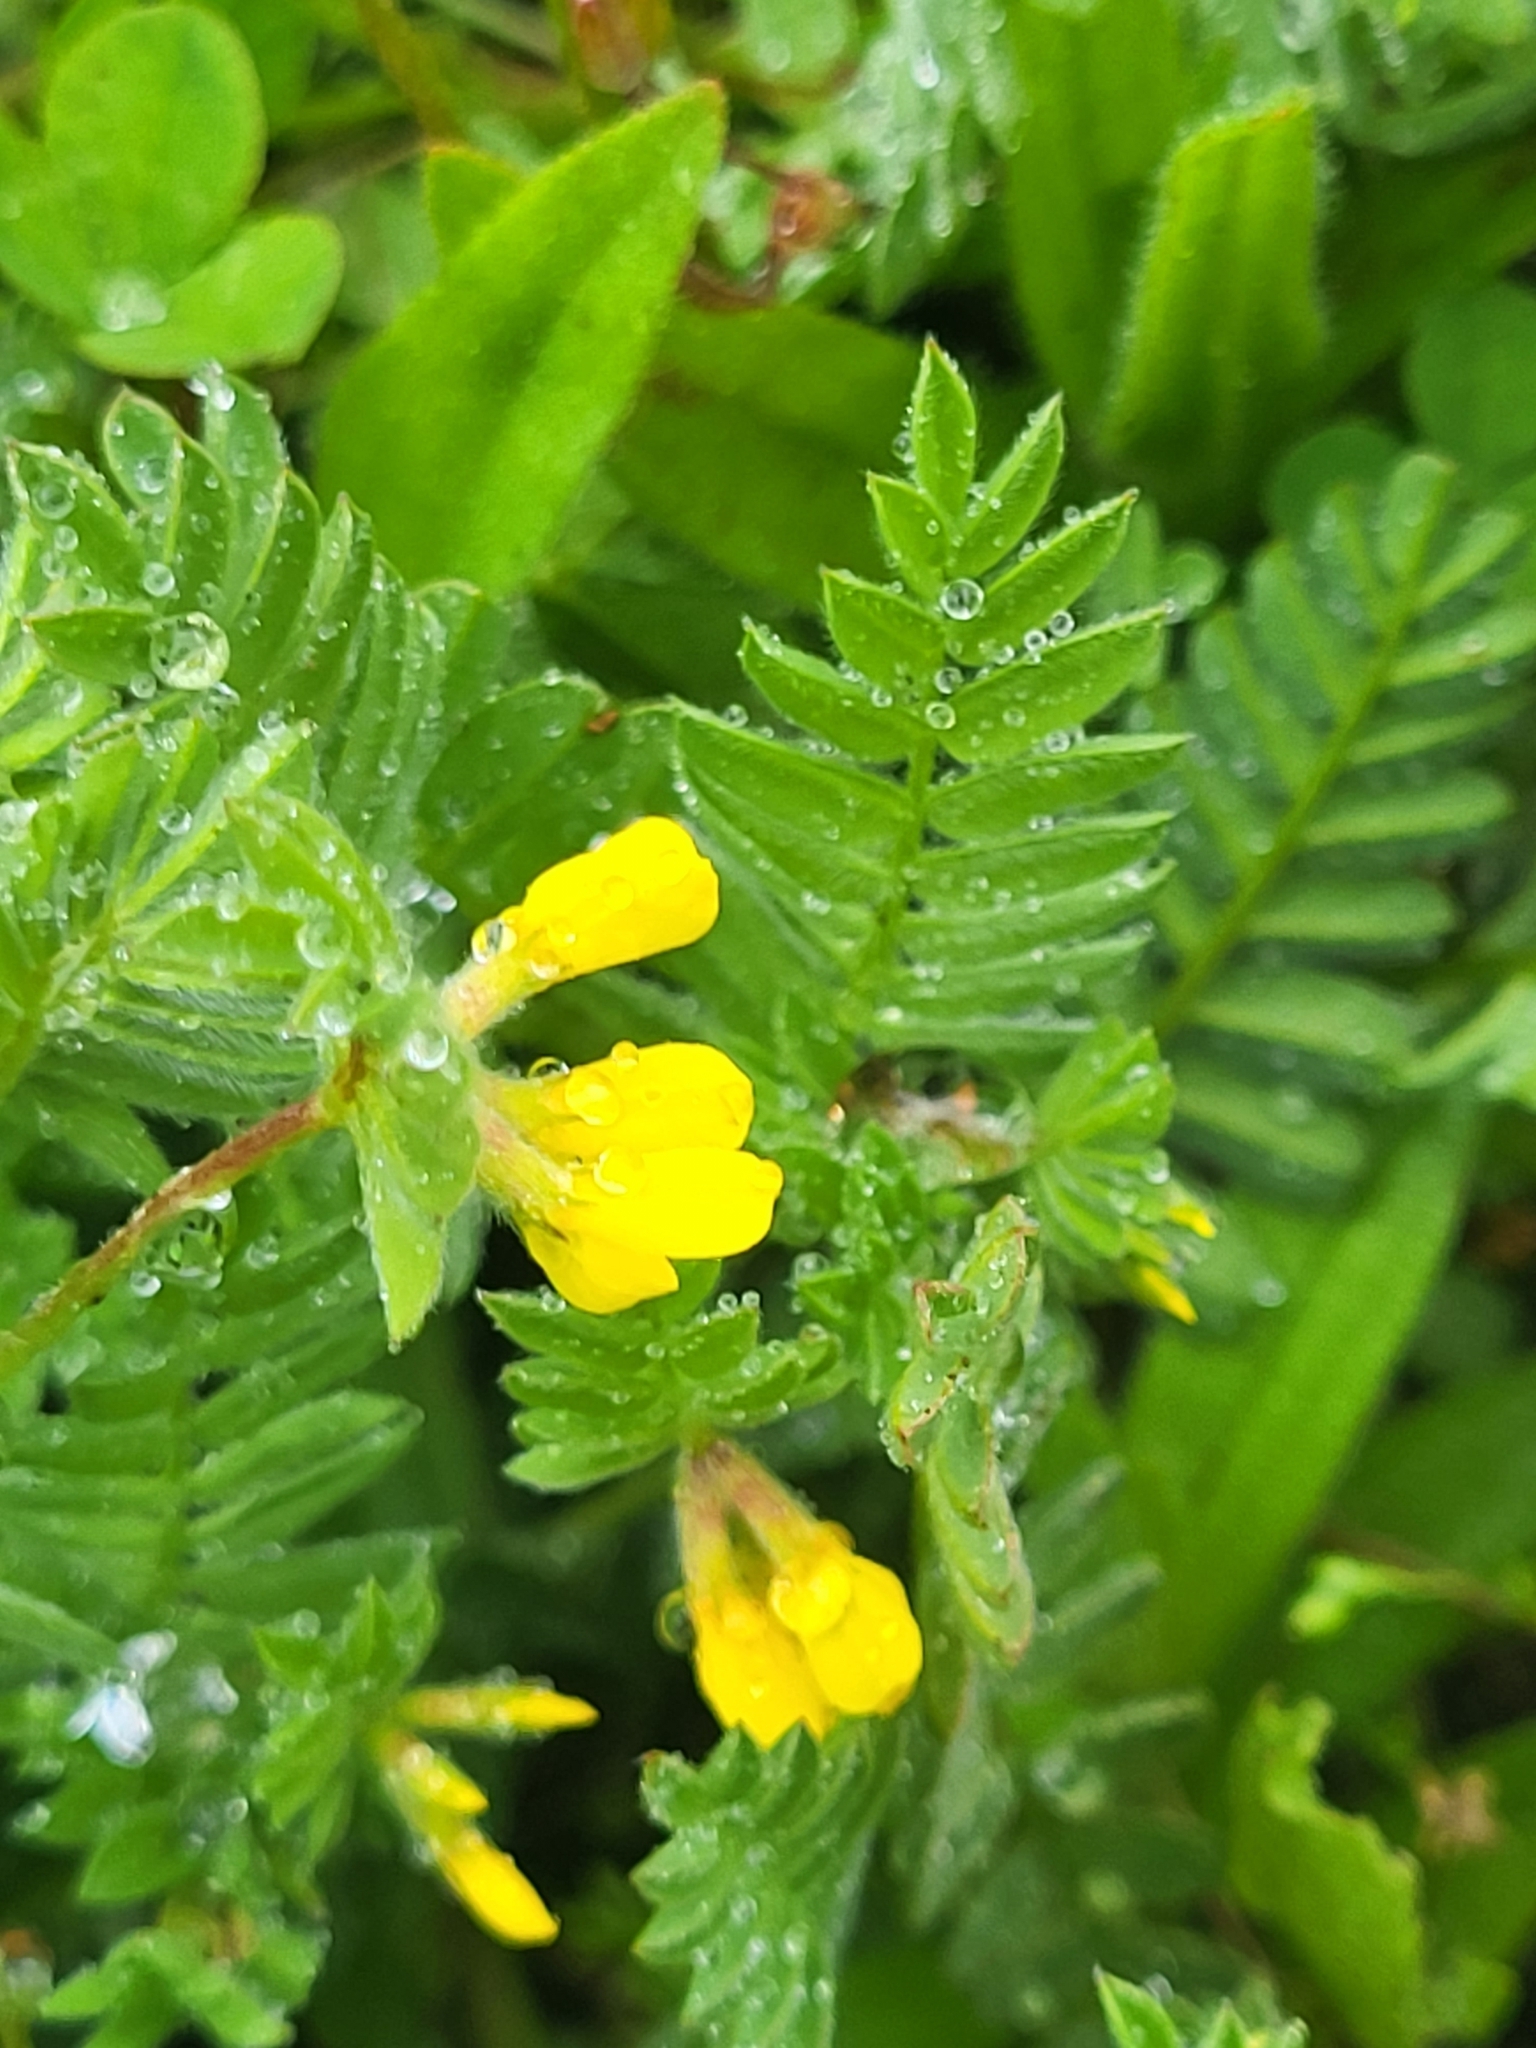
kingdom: Plantae
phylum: Tracheophyta
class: Magnoliopsida
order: Fabales
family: Fabaceae
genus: Ornithopus
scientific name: Ornithopus compressus
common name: Yellow serradella
